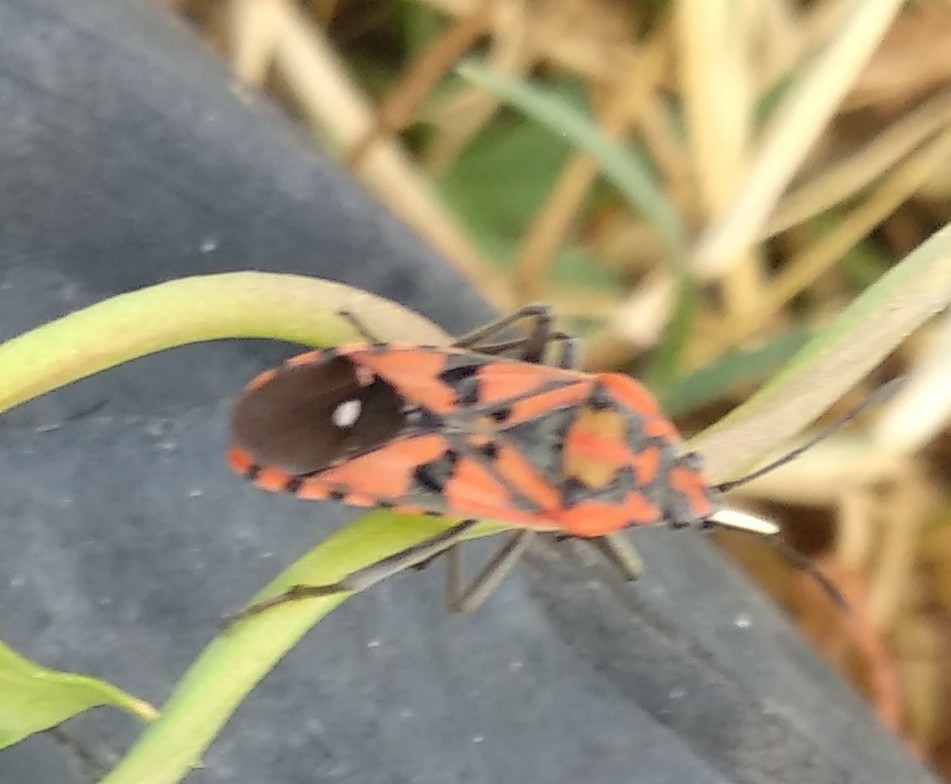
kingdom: Animalia
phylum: Arthropoda
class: Insecta
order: Hemiptera
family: Lygaeidae
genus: Spilostethus
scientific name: Spilostethus pandurus
